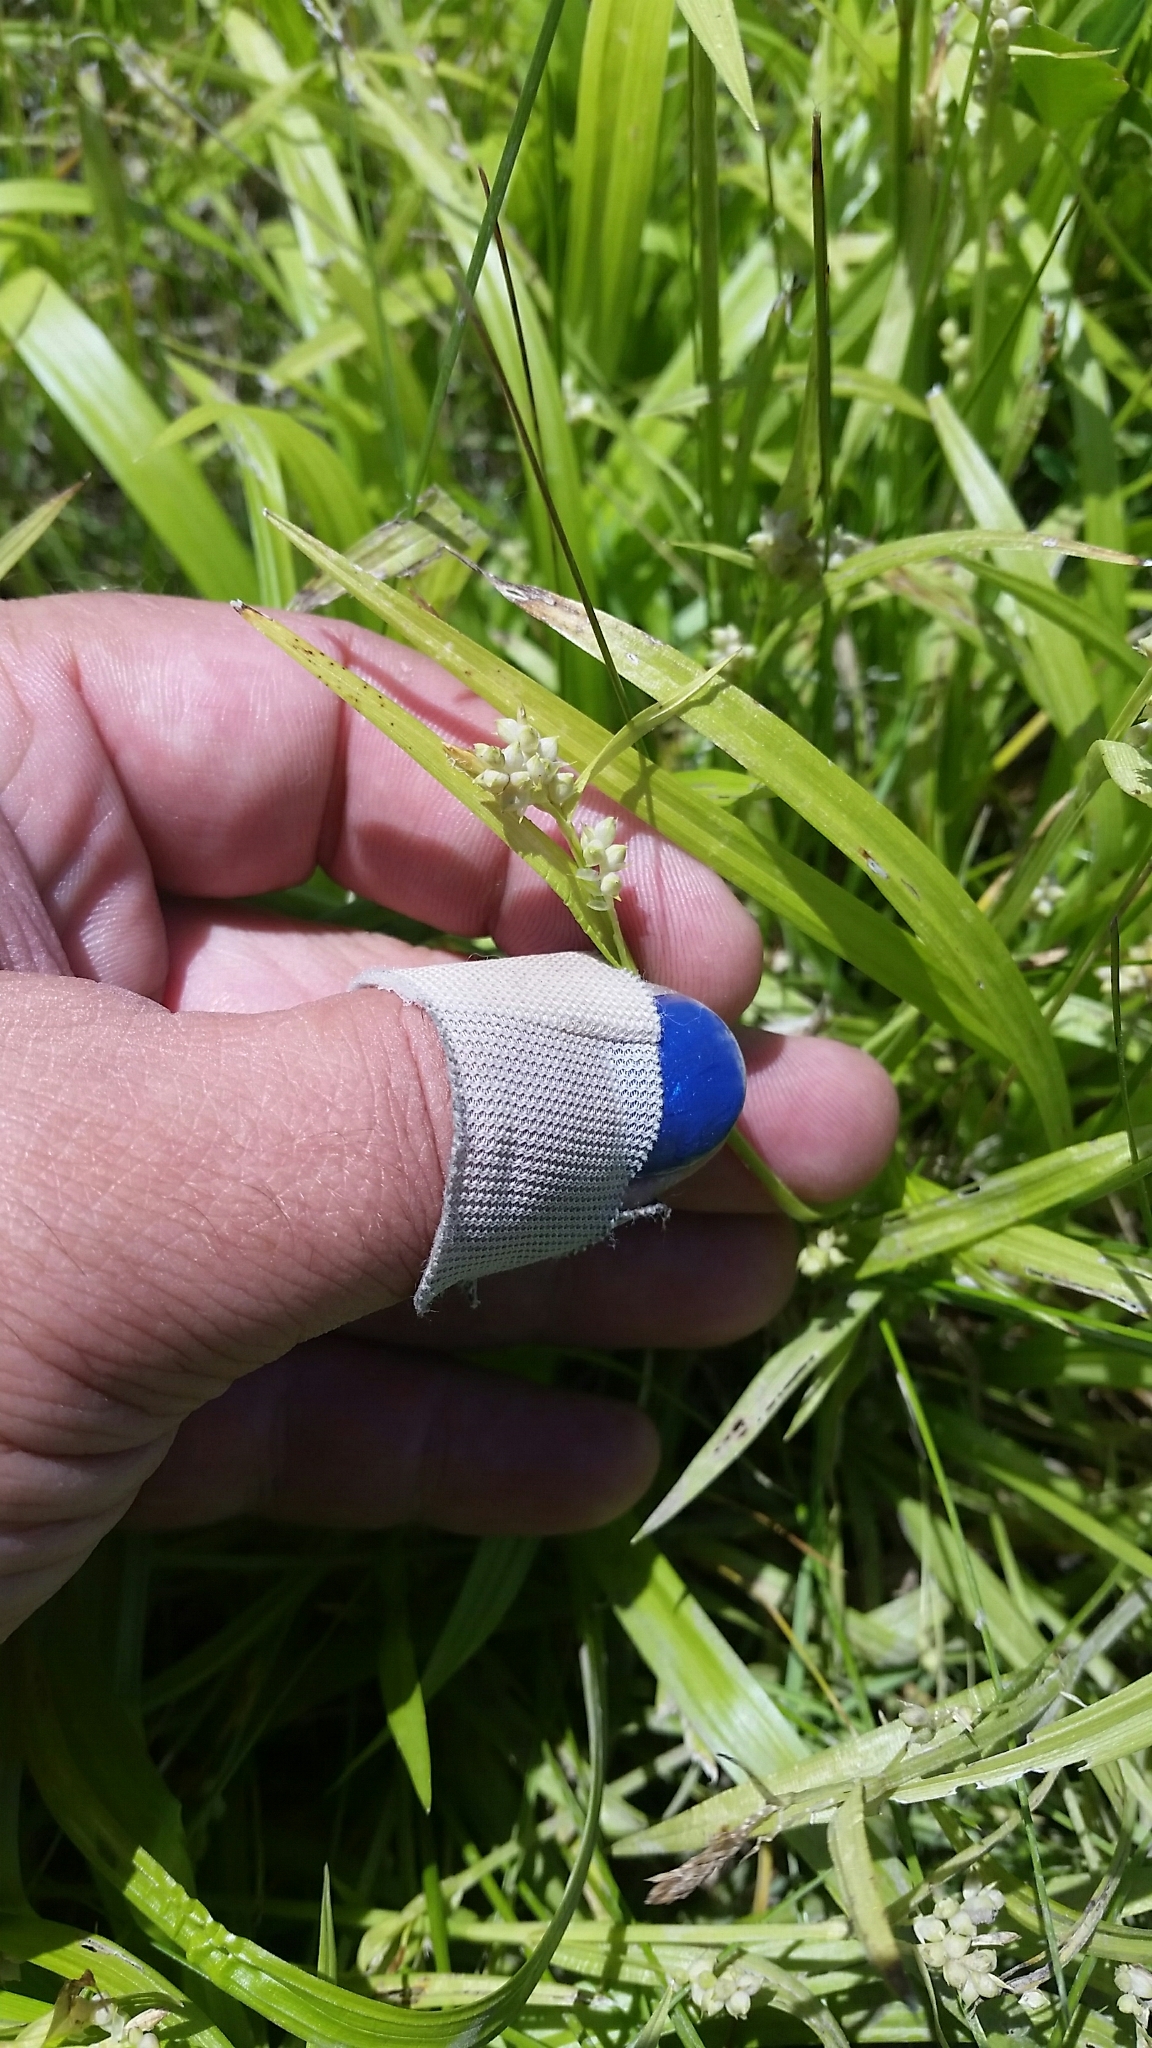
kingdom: Plantae
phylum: Tracheophyta
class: Liliopsida
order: Poales
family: Cyperaceae
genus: Carex
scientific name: Carex blanda
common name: Bland sedge
